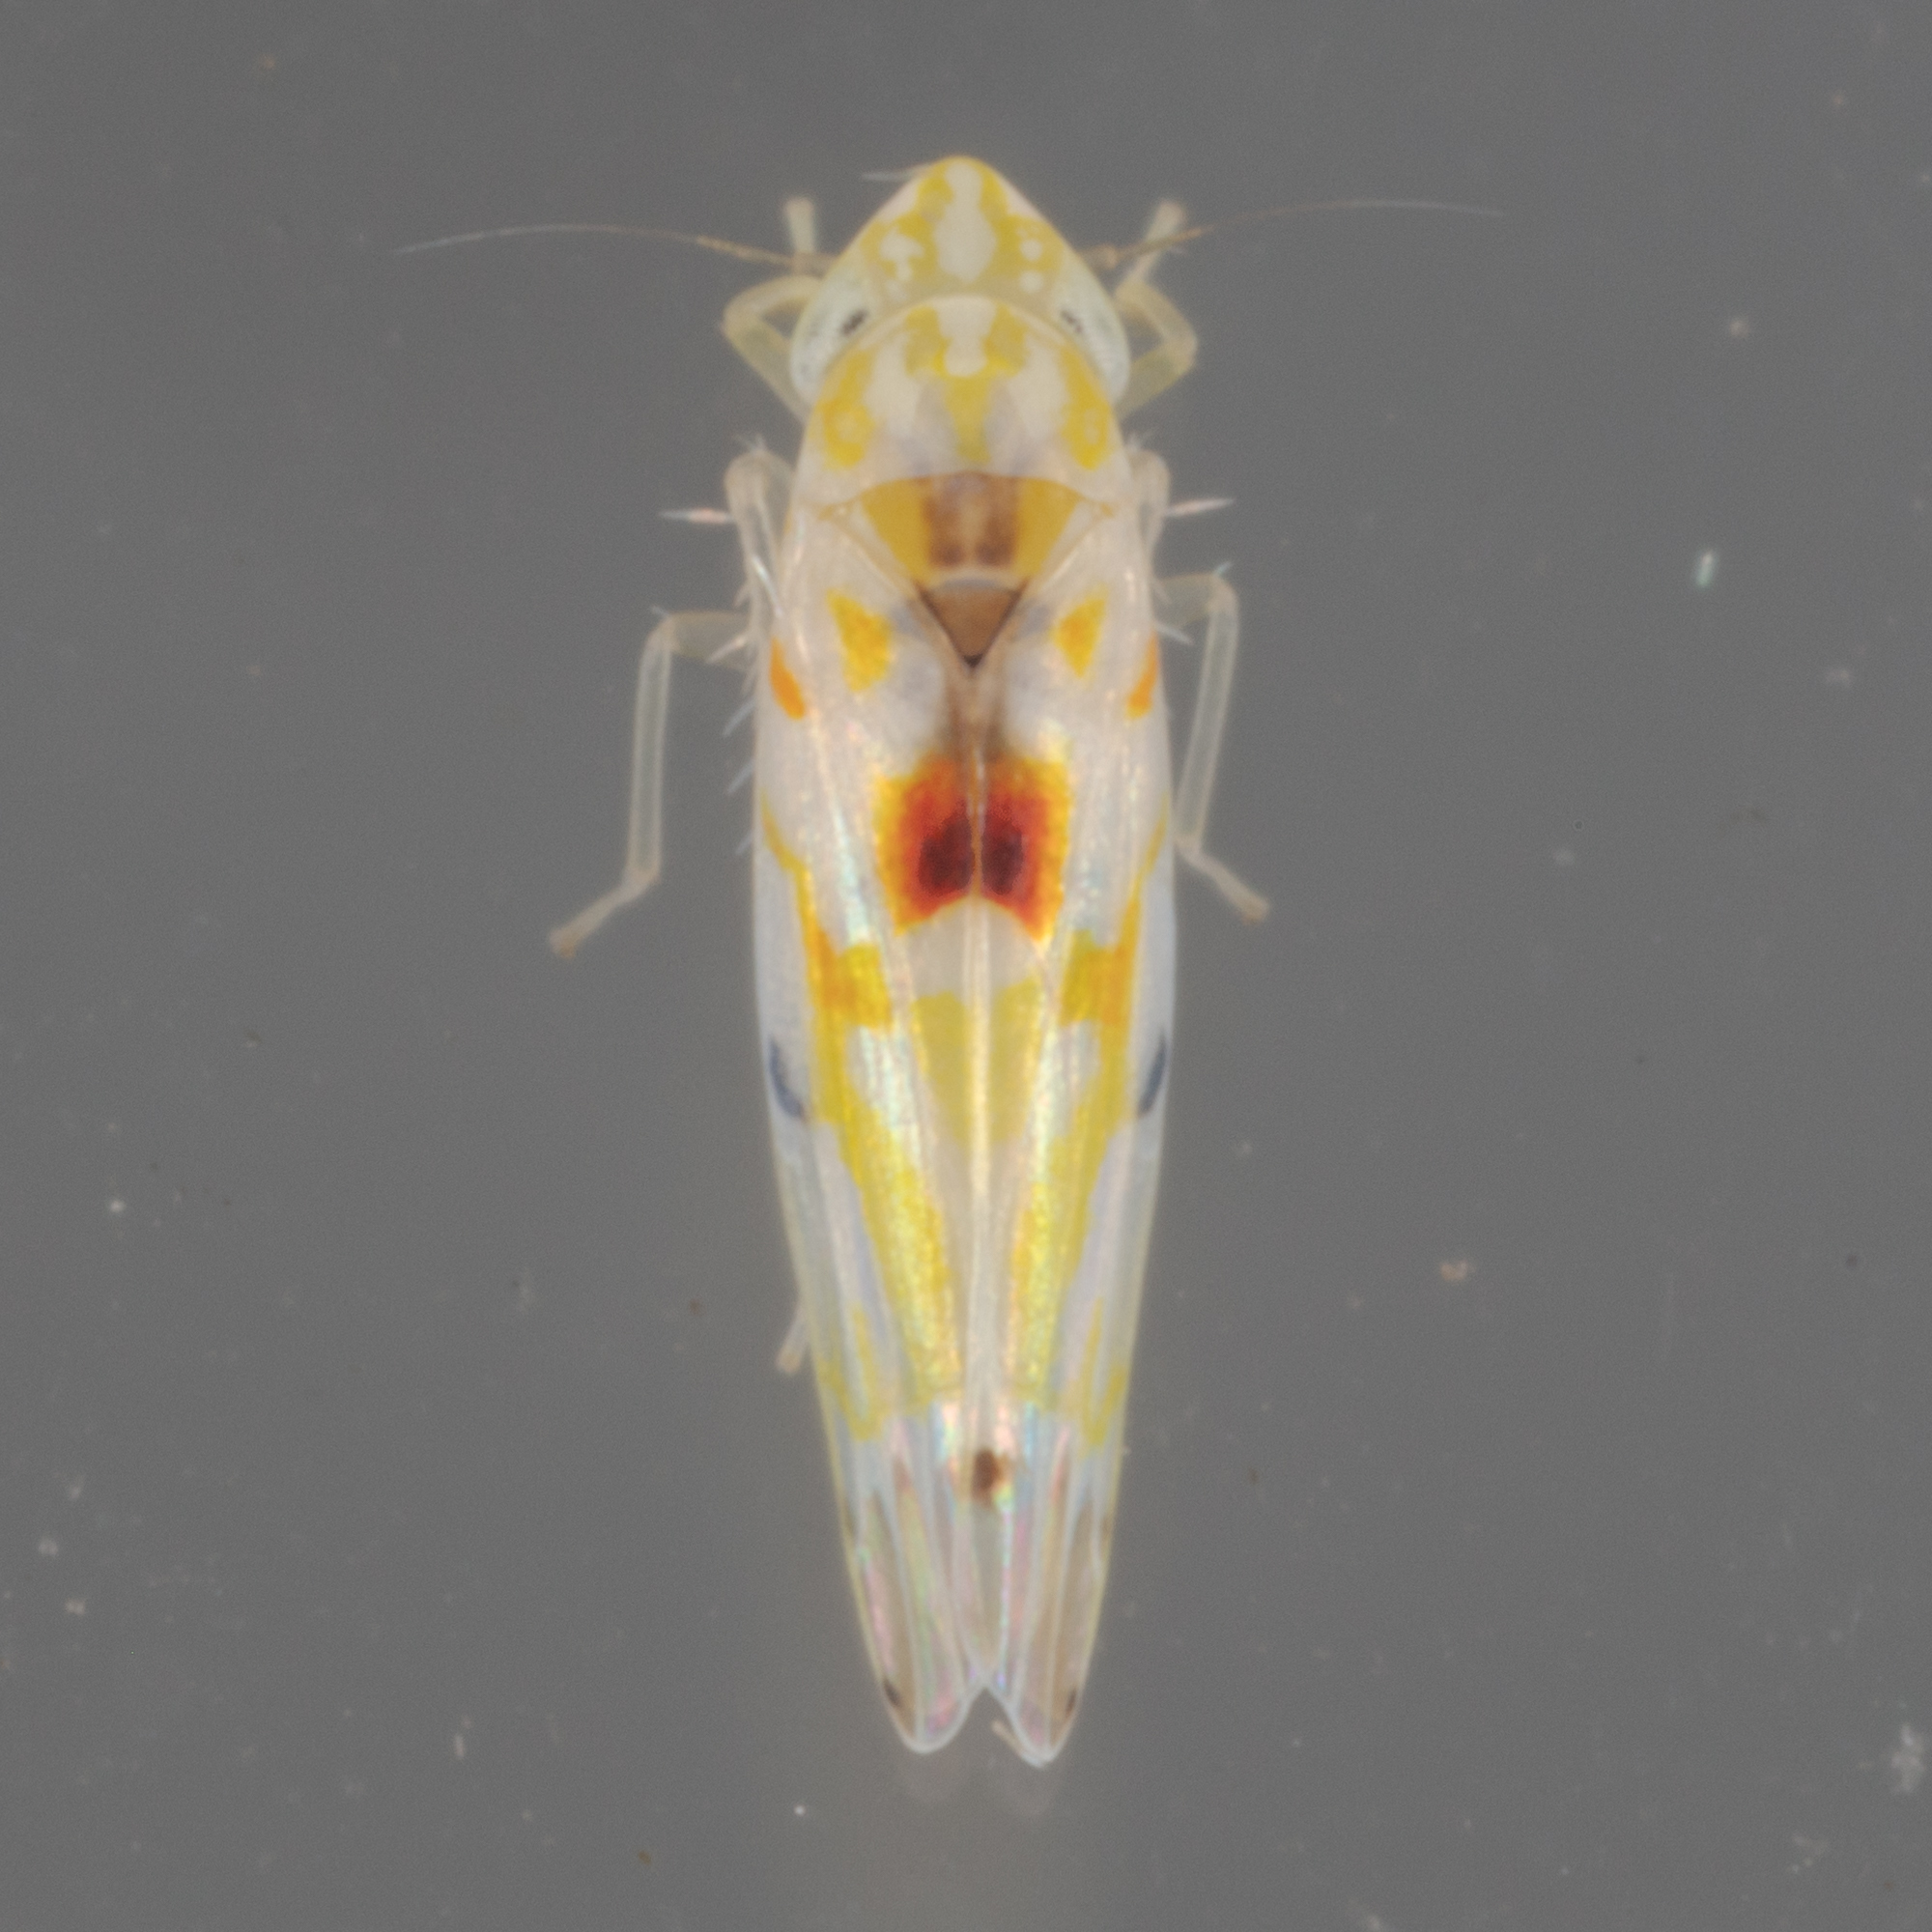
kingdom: Animalia
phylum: Arthropoda
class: Insecta
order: Hemiptera
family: Cicadellidae
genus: Erythroneura
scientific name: Erythroneura octonotata
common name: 8-spotted leafhopper
